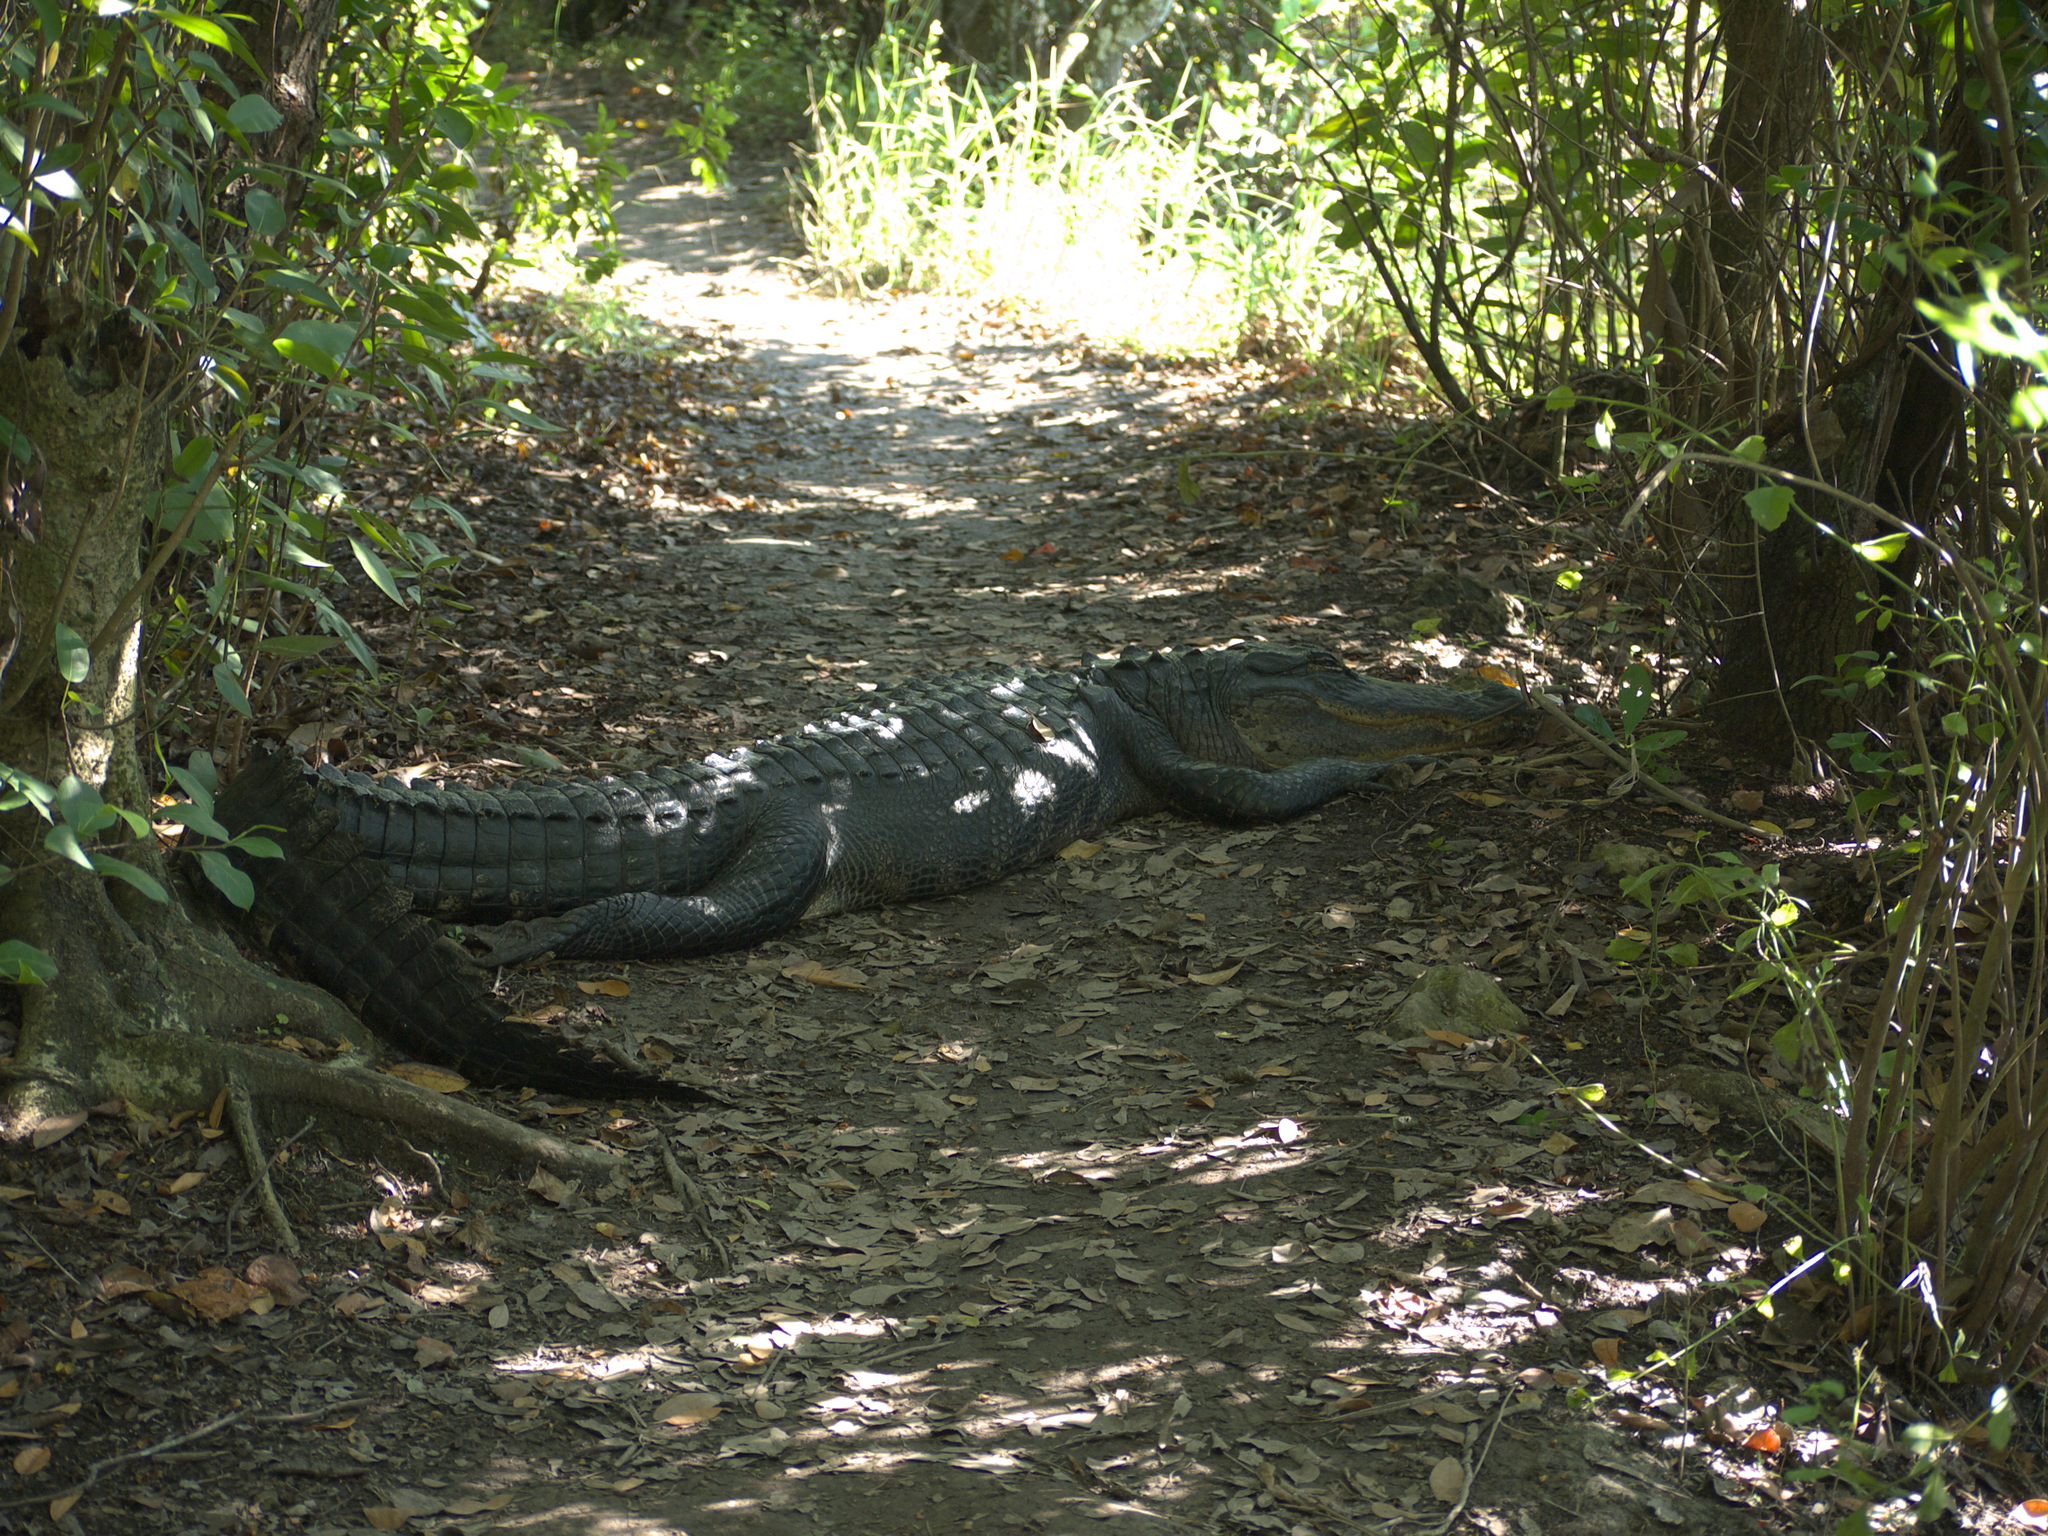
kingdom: Animalia
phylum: Chordata
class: Crocodylia
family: Alligatoridae
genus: Alligator
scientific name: Alligator mississippiensis
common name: American alligator
